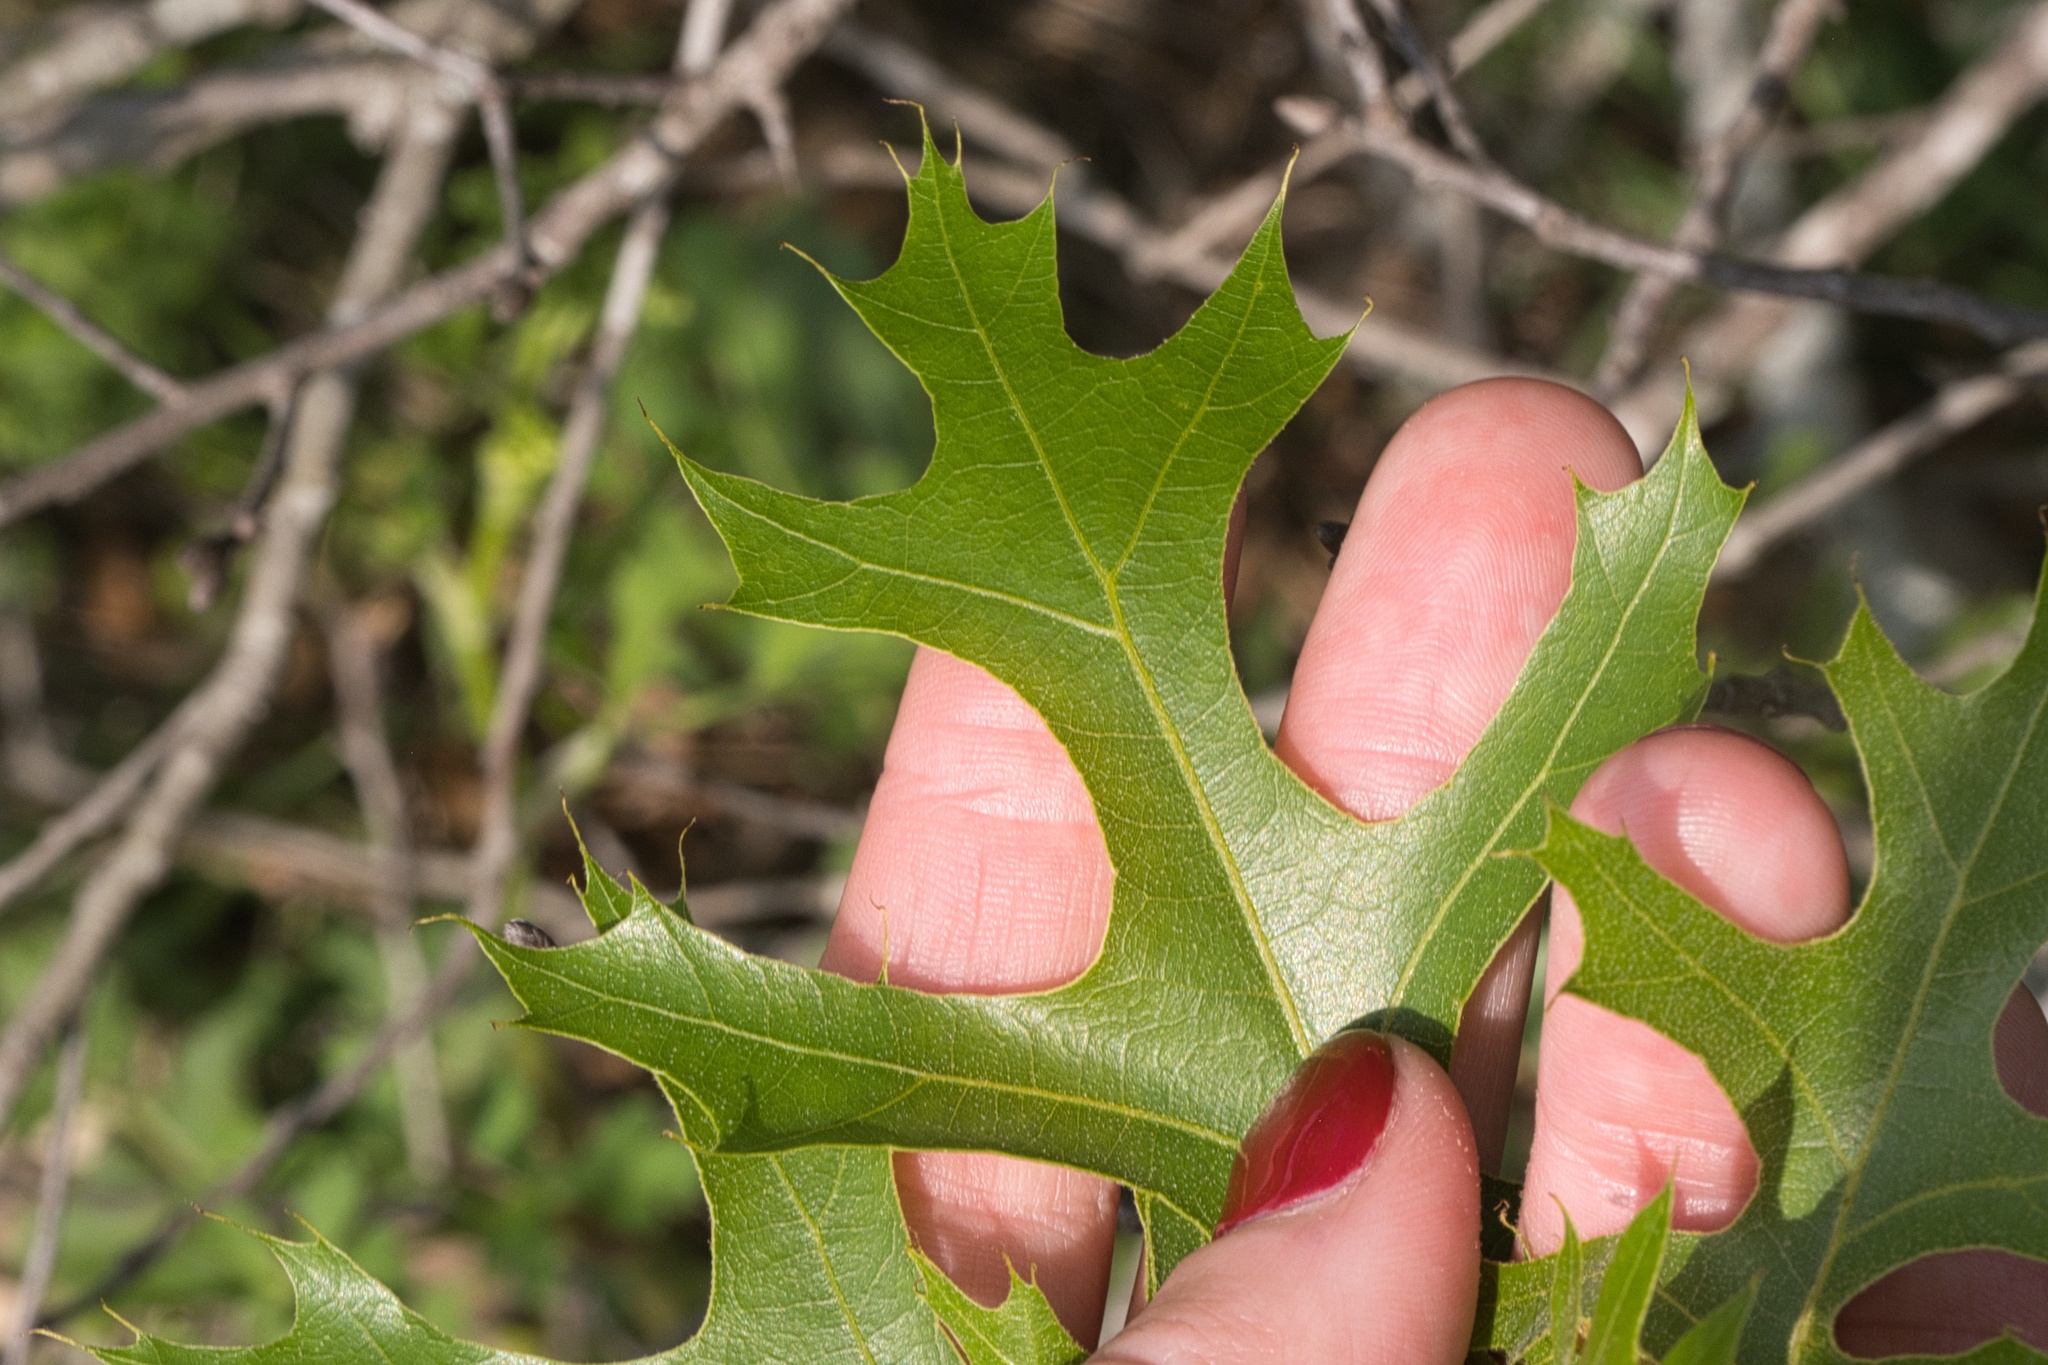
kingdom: Plantae
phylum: Tracheophyta
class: Magnoliopsida
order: Fagales
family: Fagaceae
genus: Quercus
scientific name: Quercus buckleyi
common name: Buckley oak
